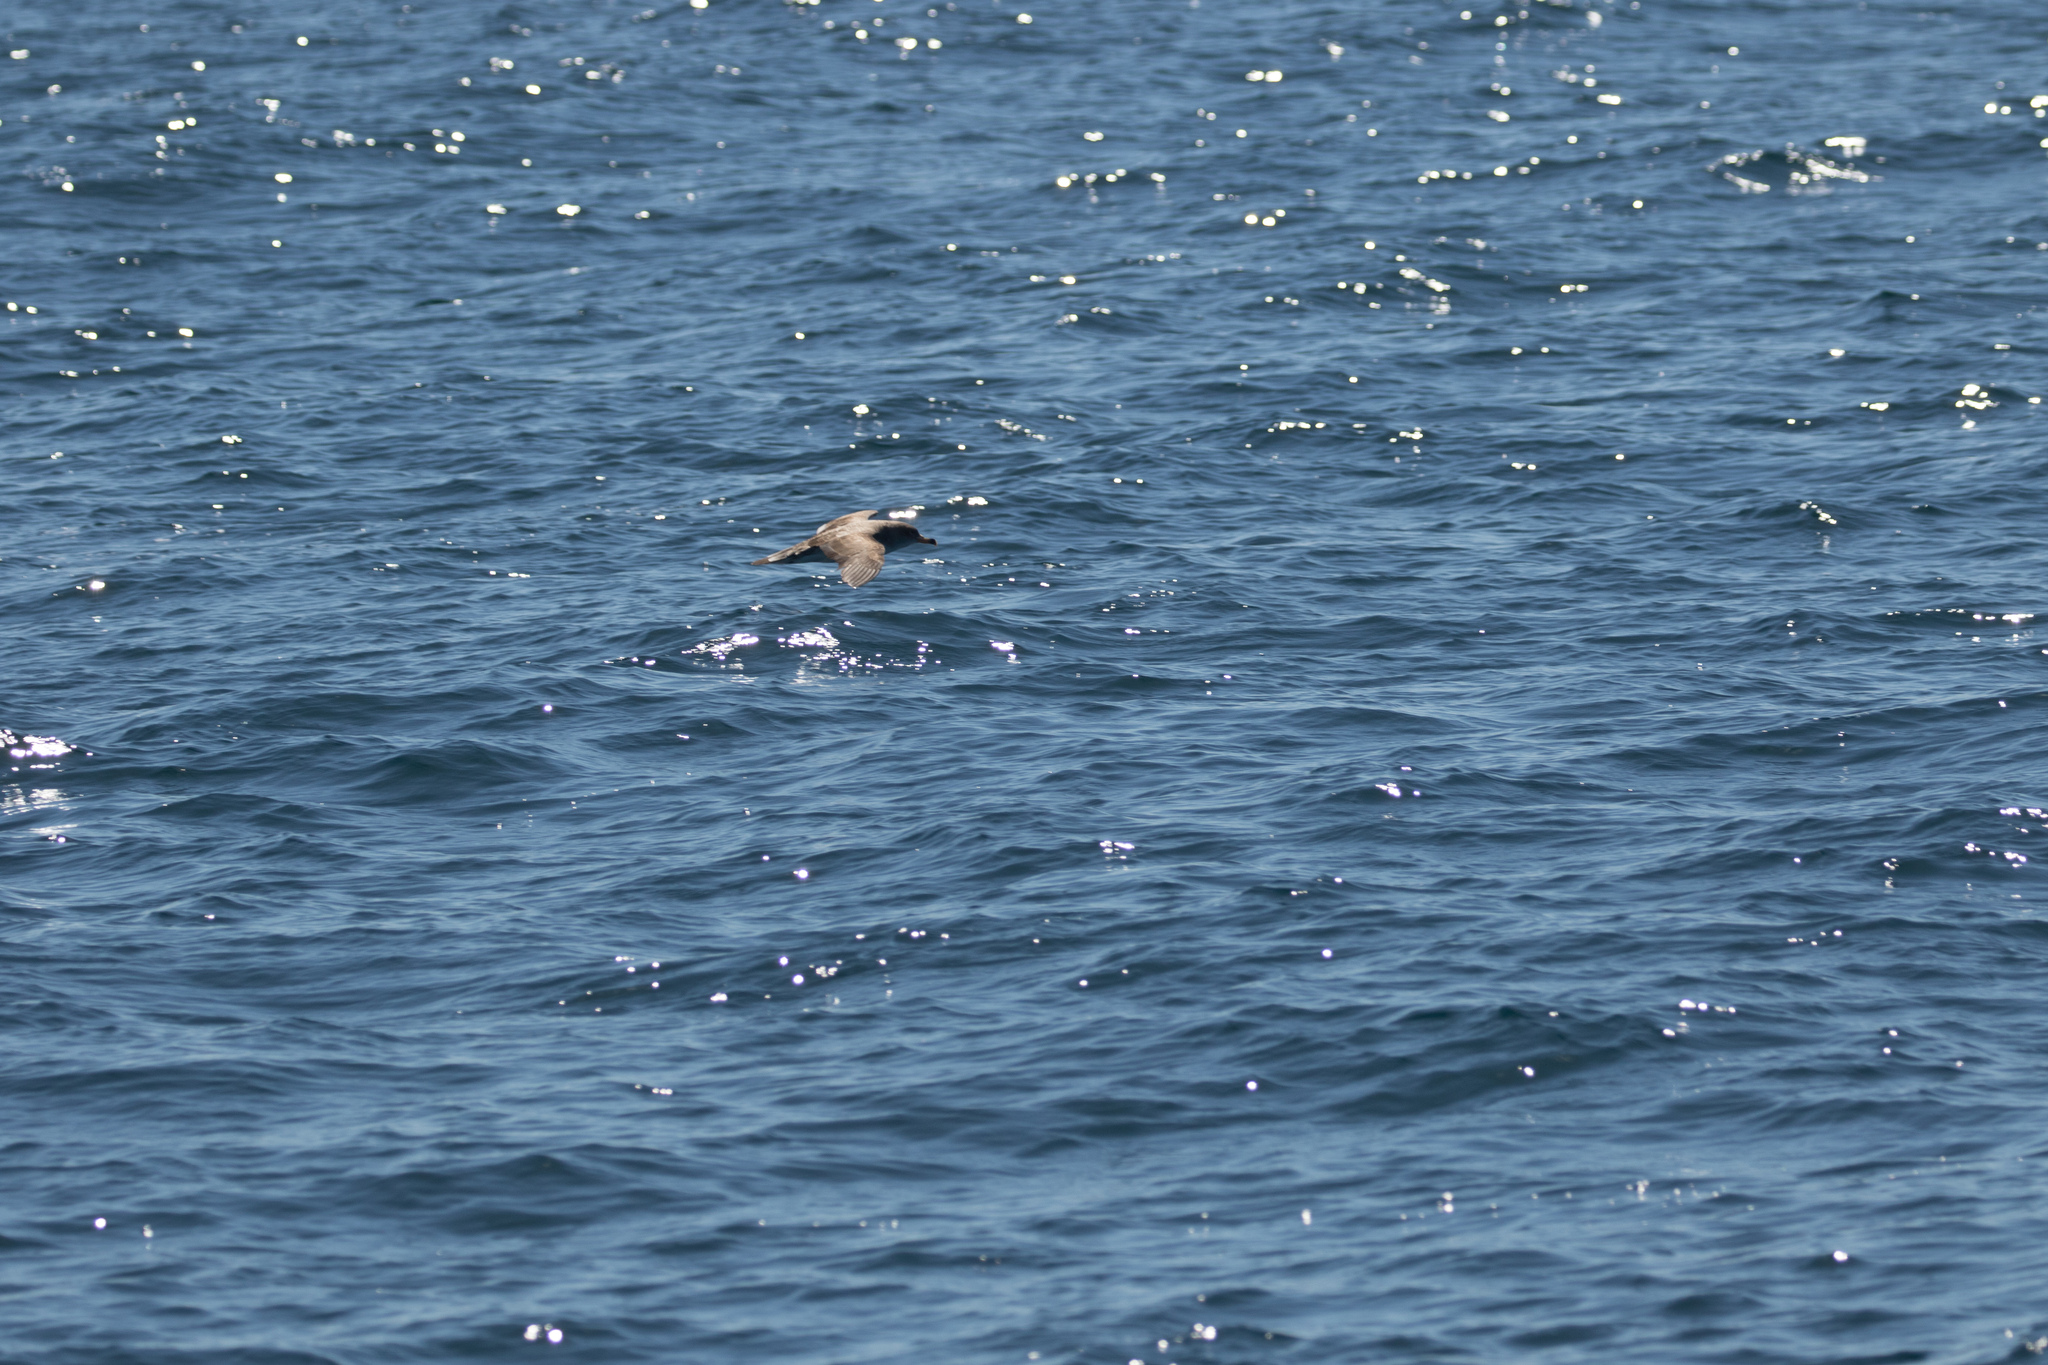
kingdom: Animalia
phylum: Chordata
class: Aves
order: Procellariiformes
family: Procellariidae
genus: Calonectris
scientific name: Calonectris diomedea
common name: Cory's shearwater
